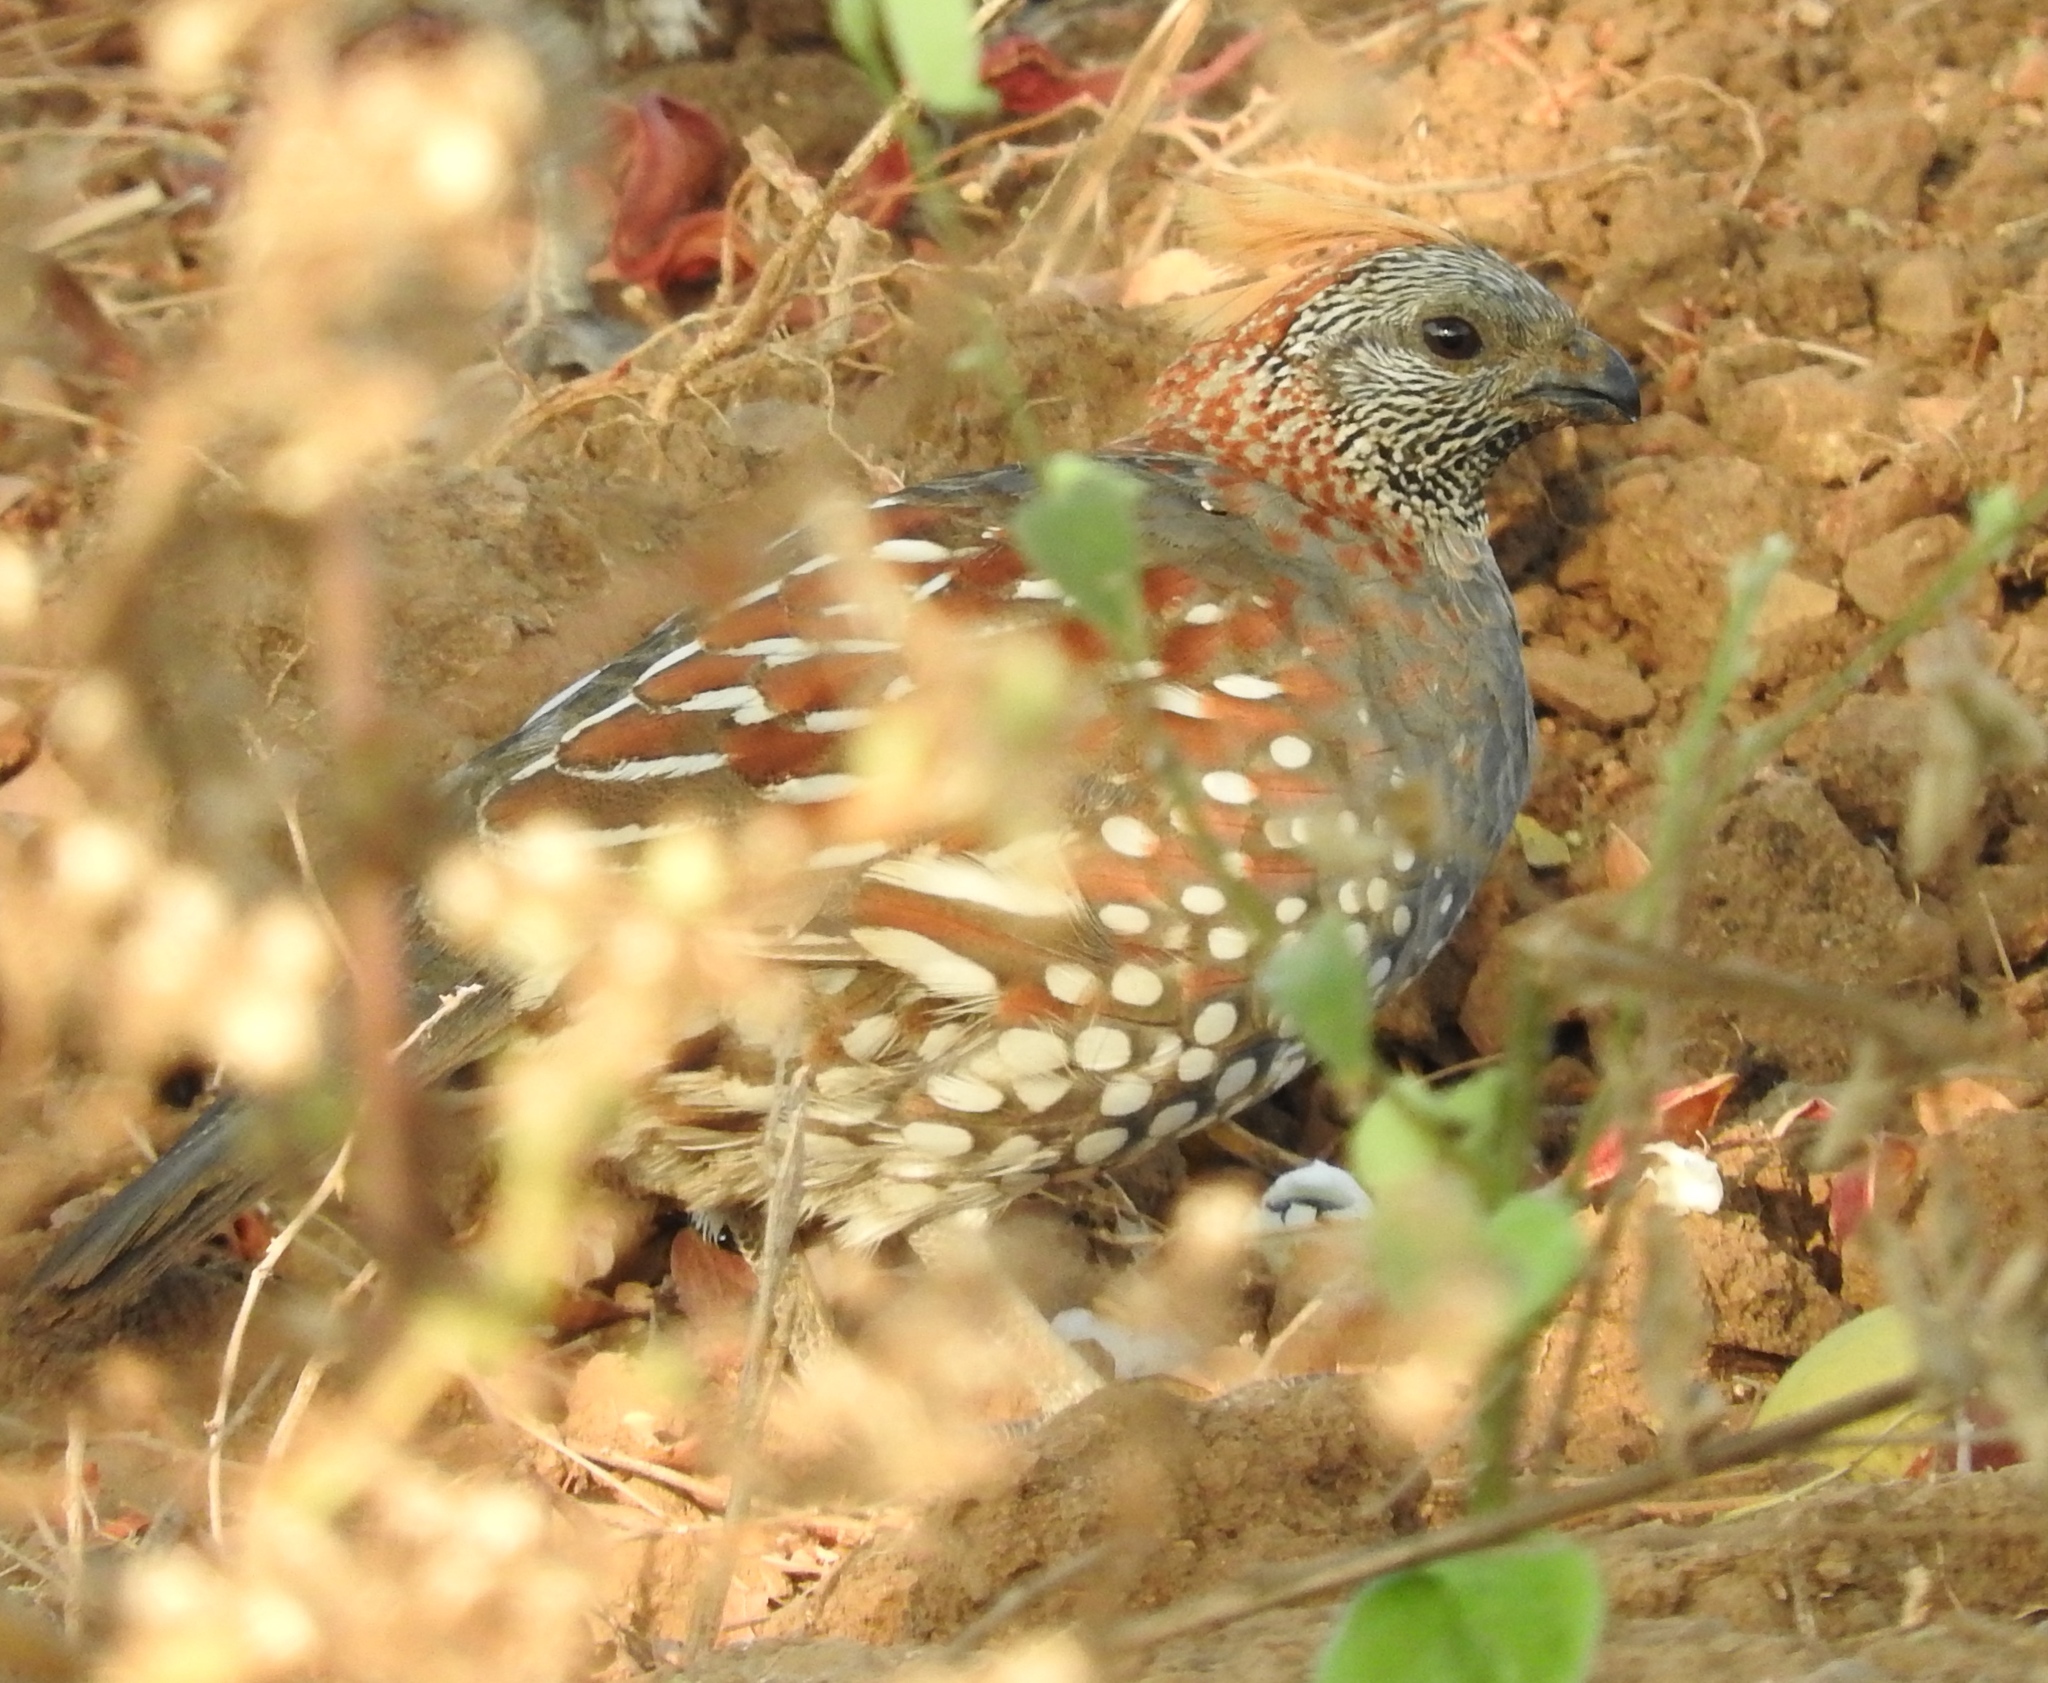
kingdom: Animalia
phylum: Chordata
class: Aves
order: Galliformes
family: Odontophoridae
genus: Callipepla
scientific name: Callipepla douglasii
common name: Elegant quail
